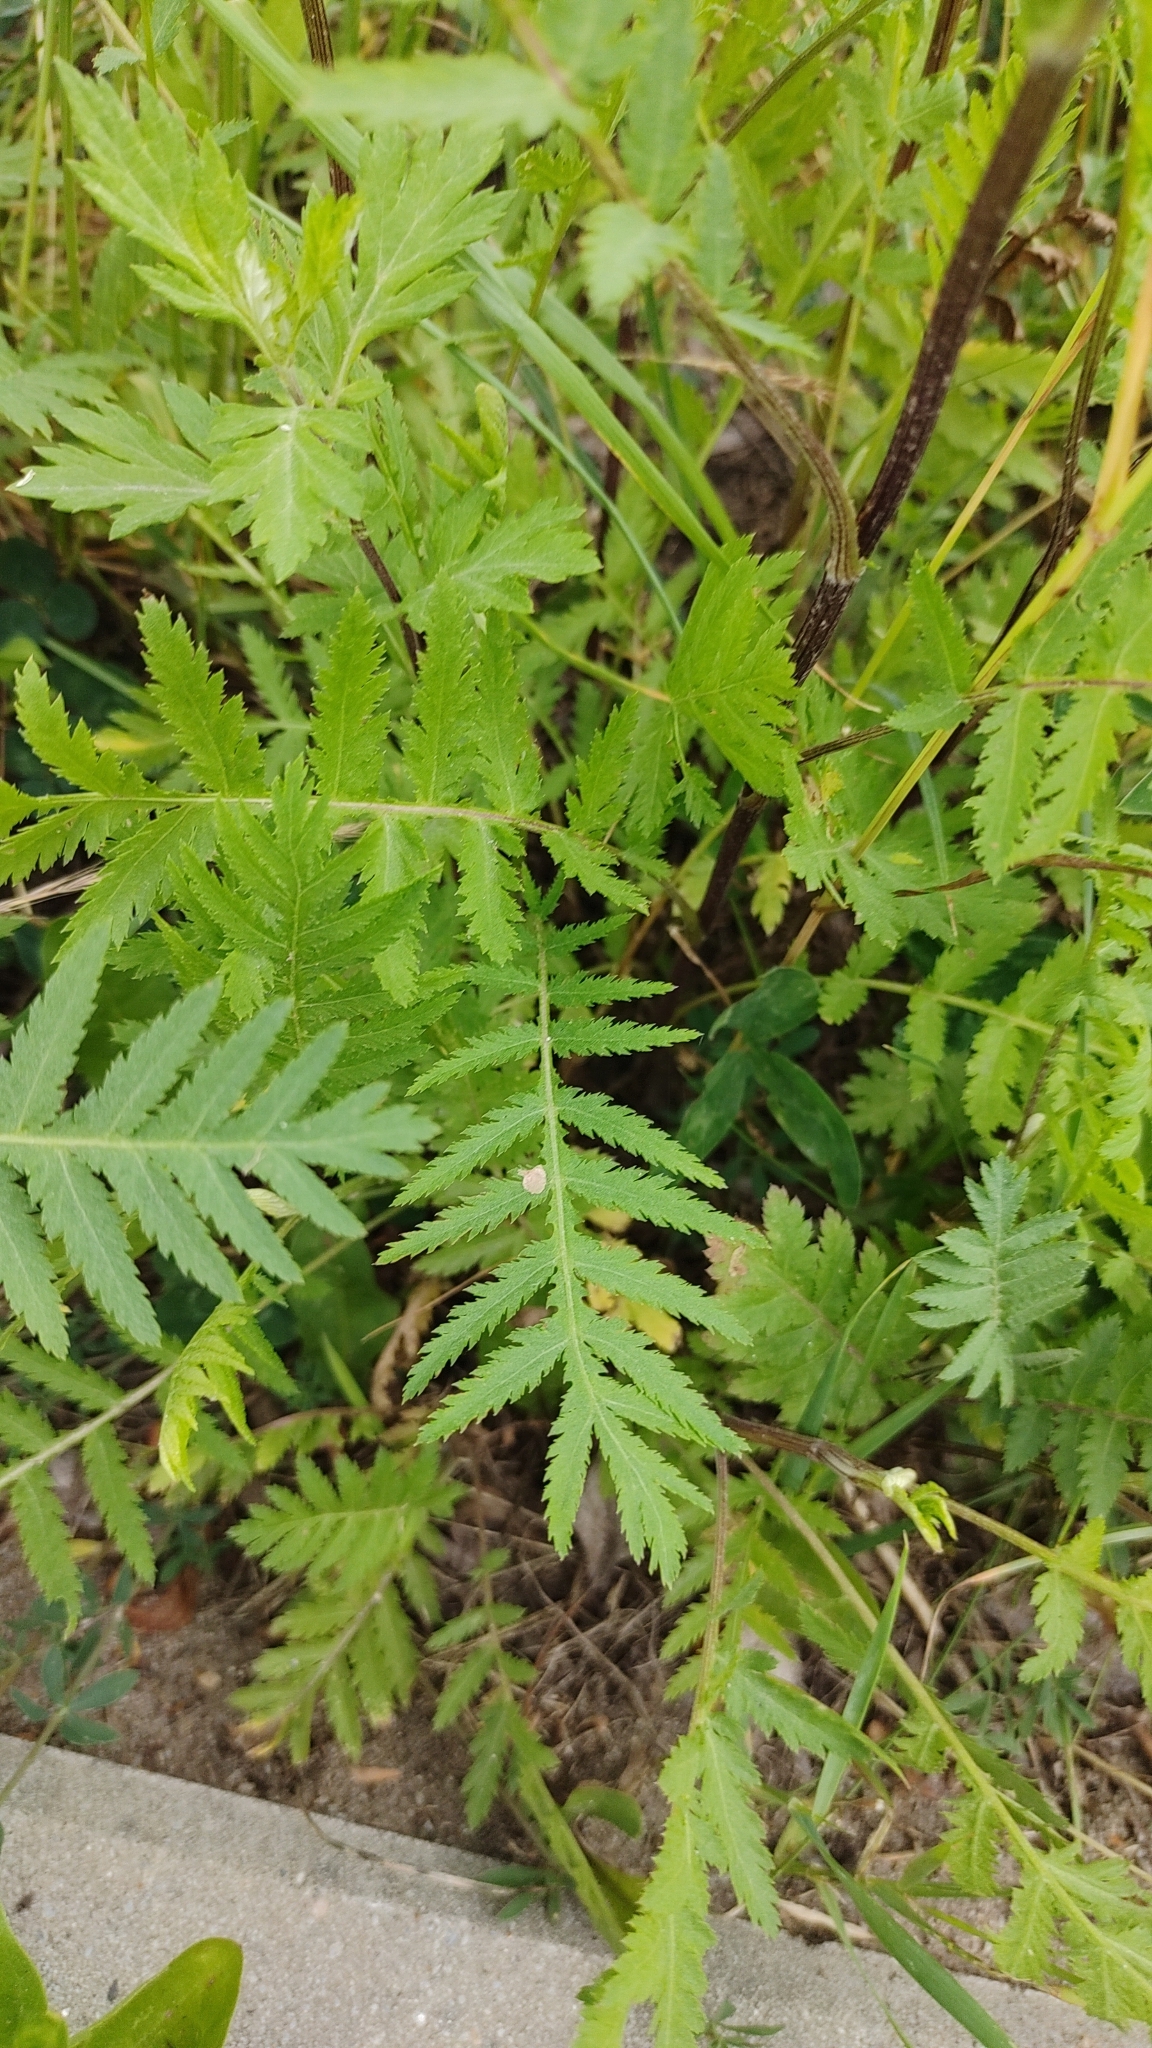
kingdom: Plantae
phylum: Tracheophyta
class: Magnoliopsida
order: Asterales
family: Asteraceae
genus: Tanacetum
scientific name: Tanacetum vulgare
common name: Common tansy
